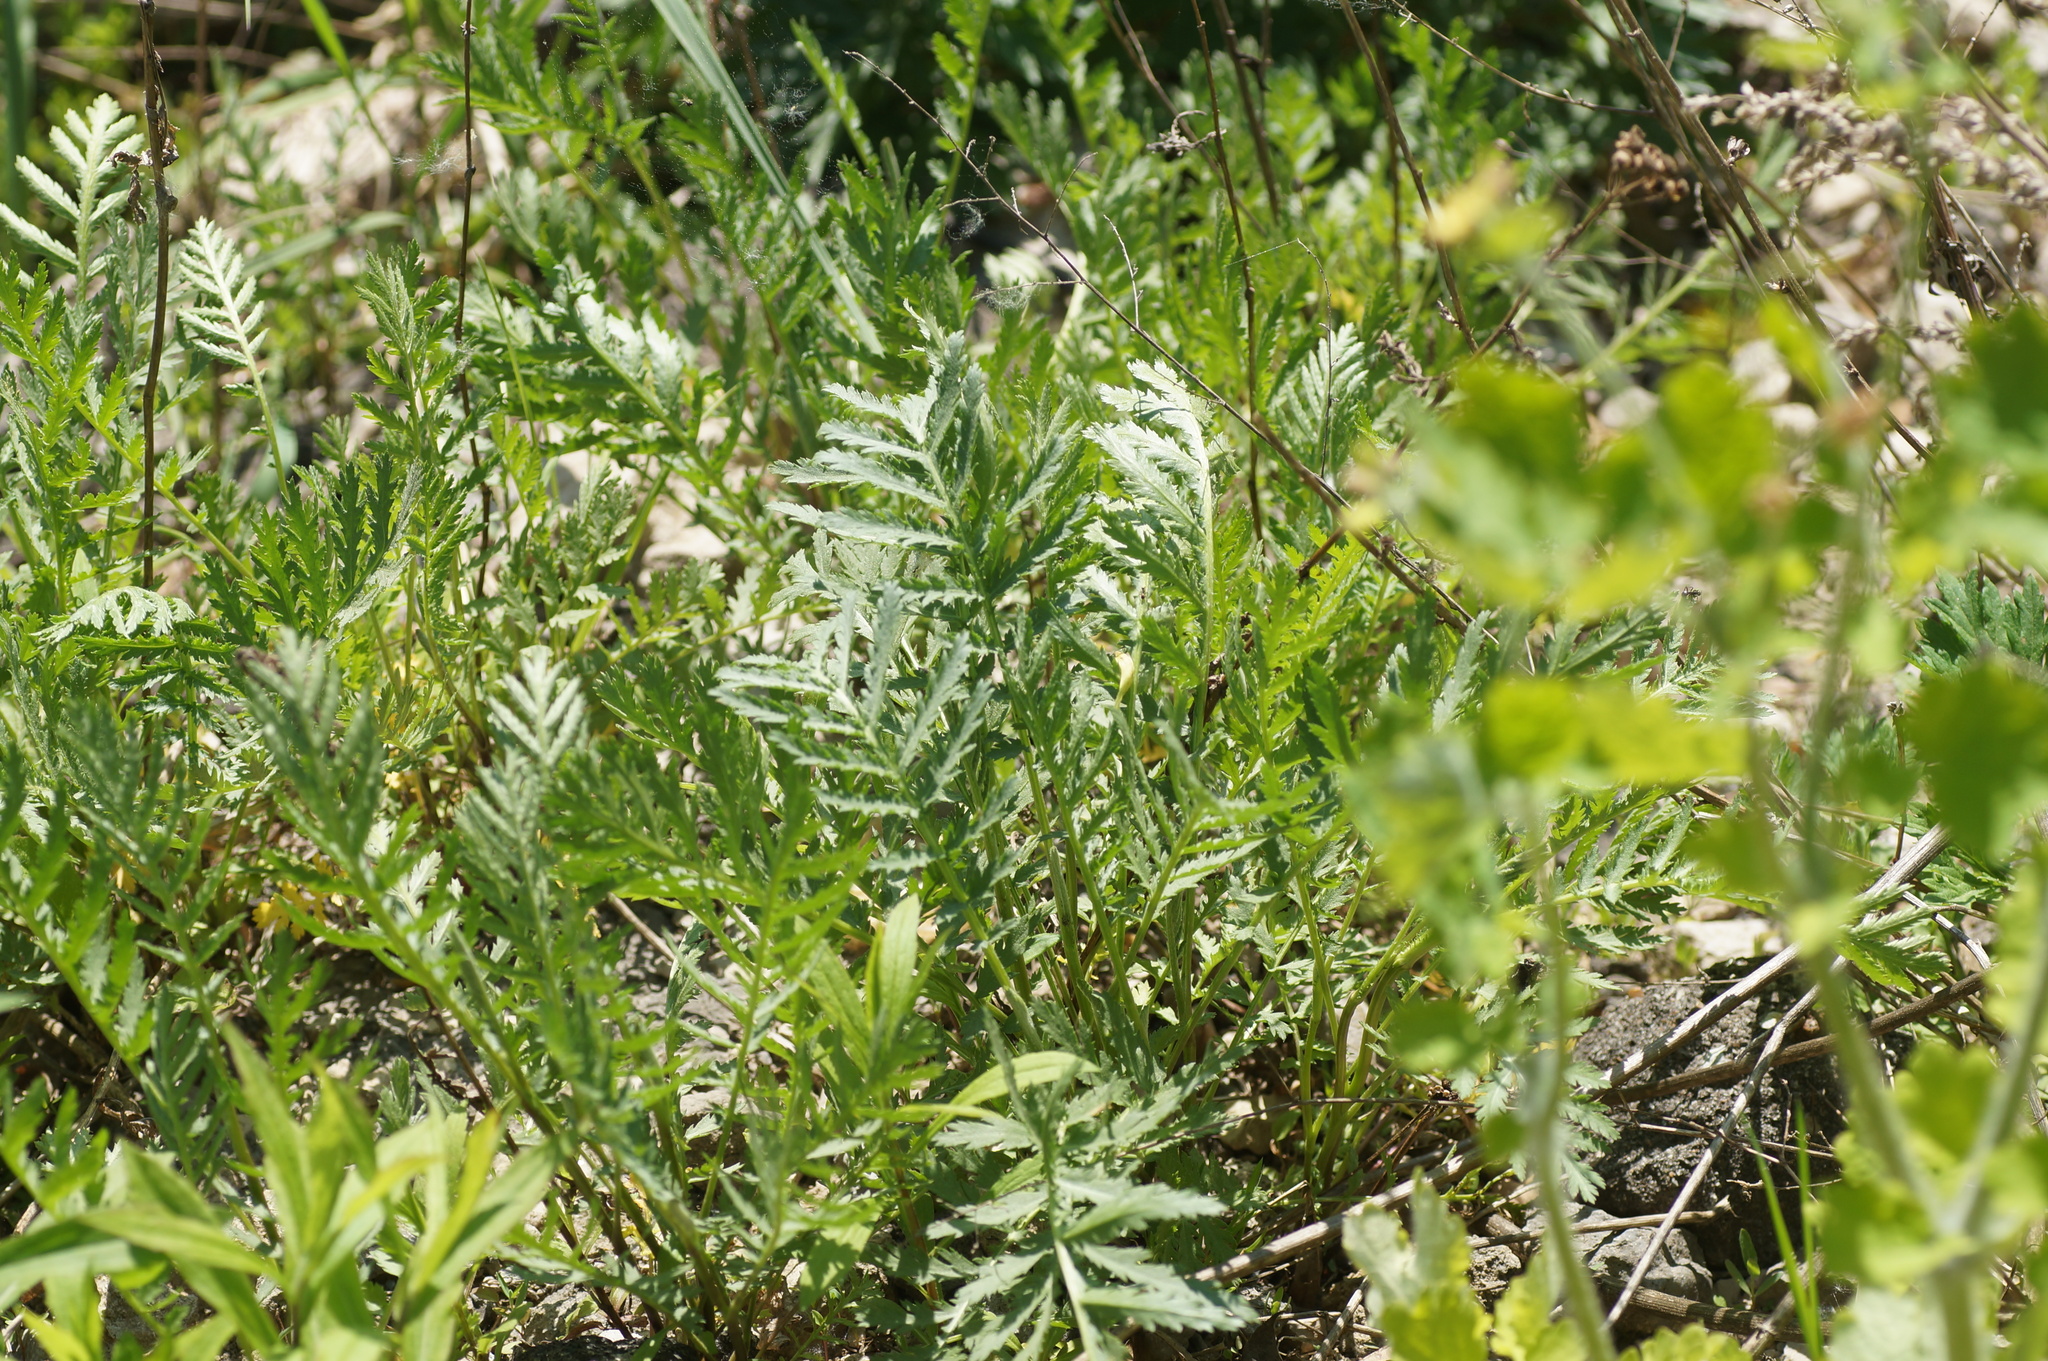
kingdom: Plantae
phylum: Tracheophyta
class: Magnoliopsida
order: Asterales
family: Asteraceae
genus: Tanacetum
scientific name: Tanacetum vulgare
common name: Common tansy
